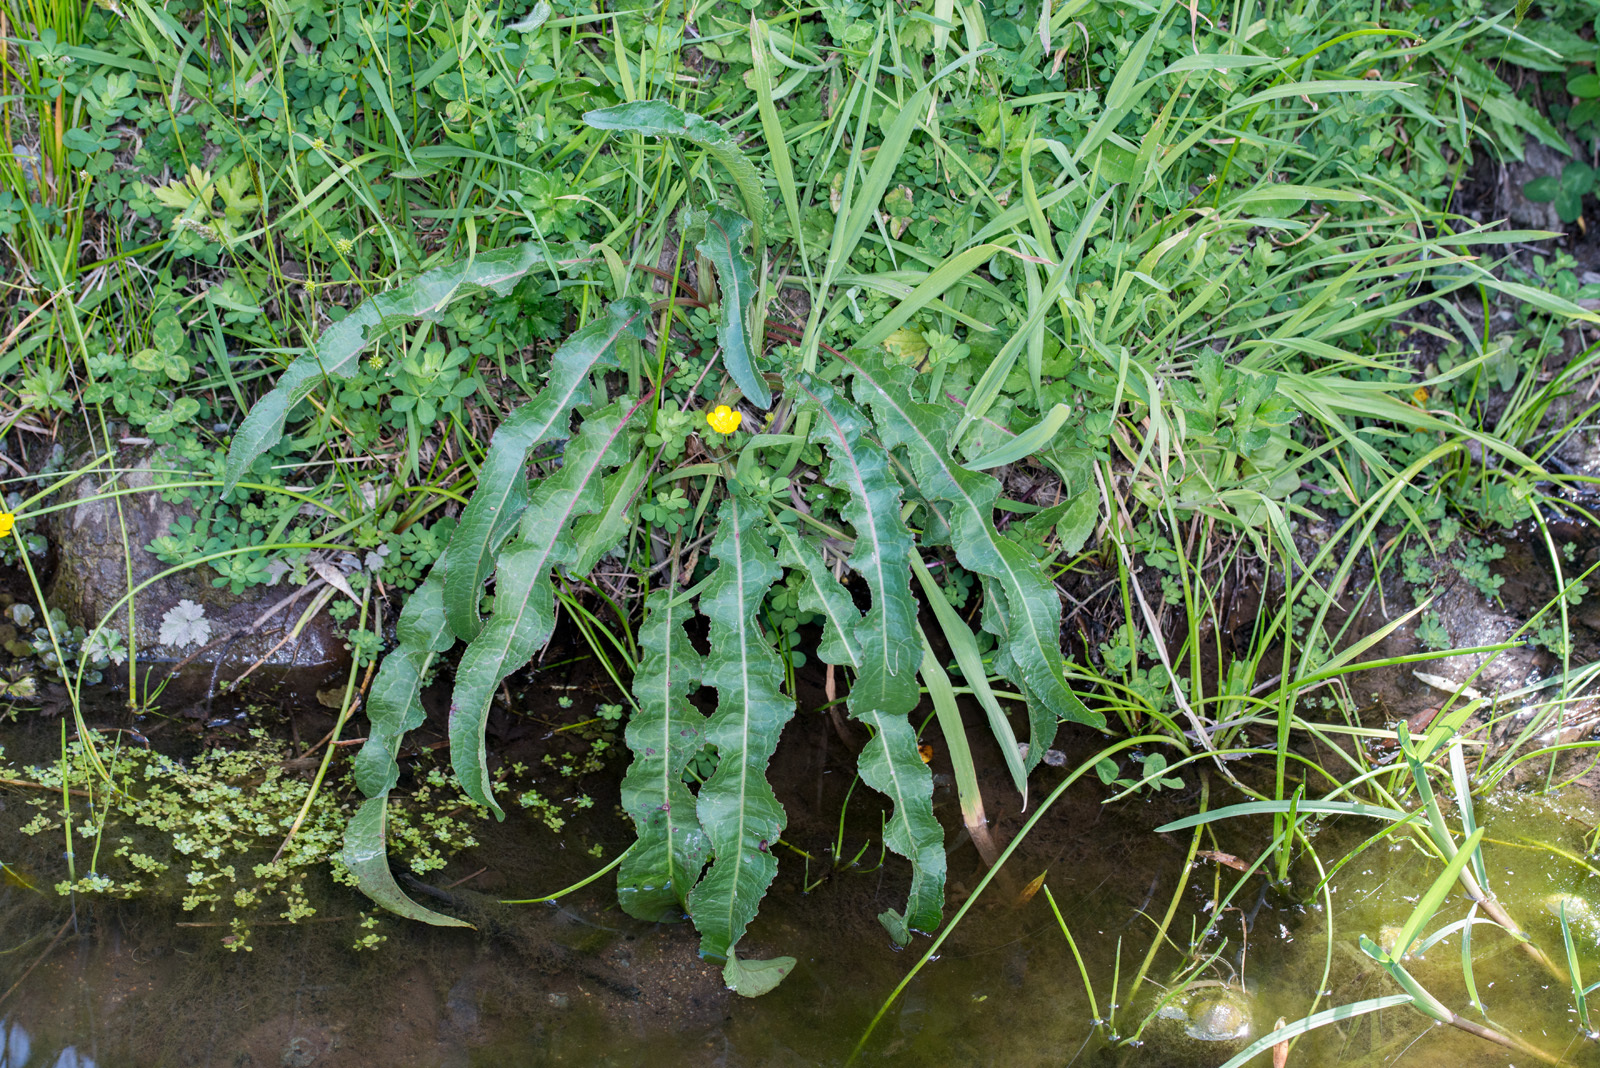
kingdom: Plantae
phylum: Tracheophyta
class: Magnoliopsida
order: Caryophyllales
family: Polygonaceae
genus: Rumex
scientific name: Rumex crispus
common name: Curled dock
